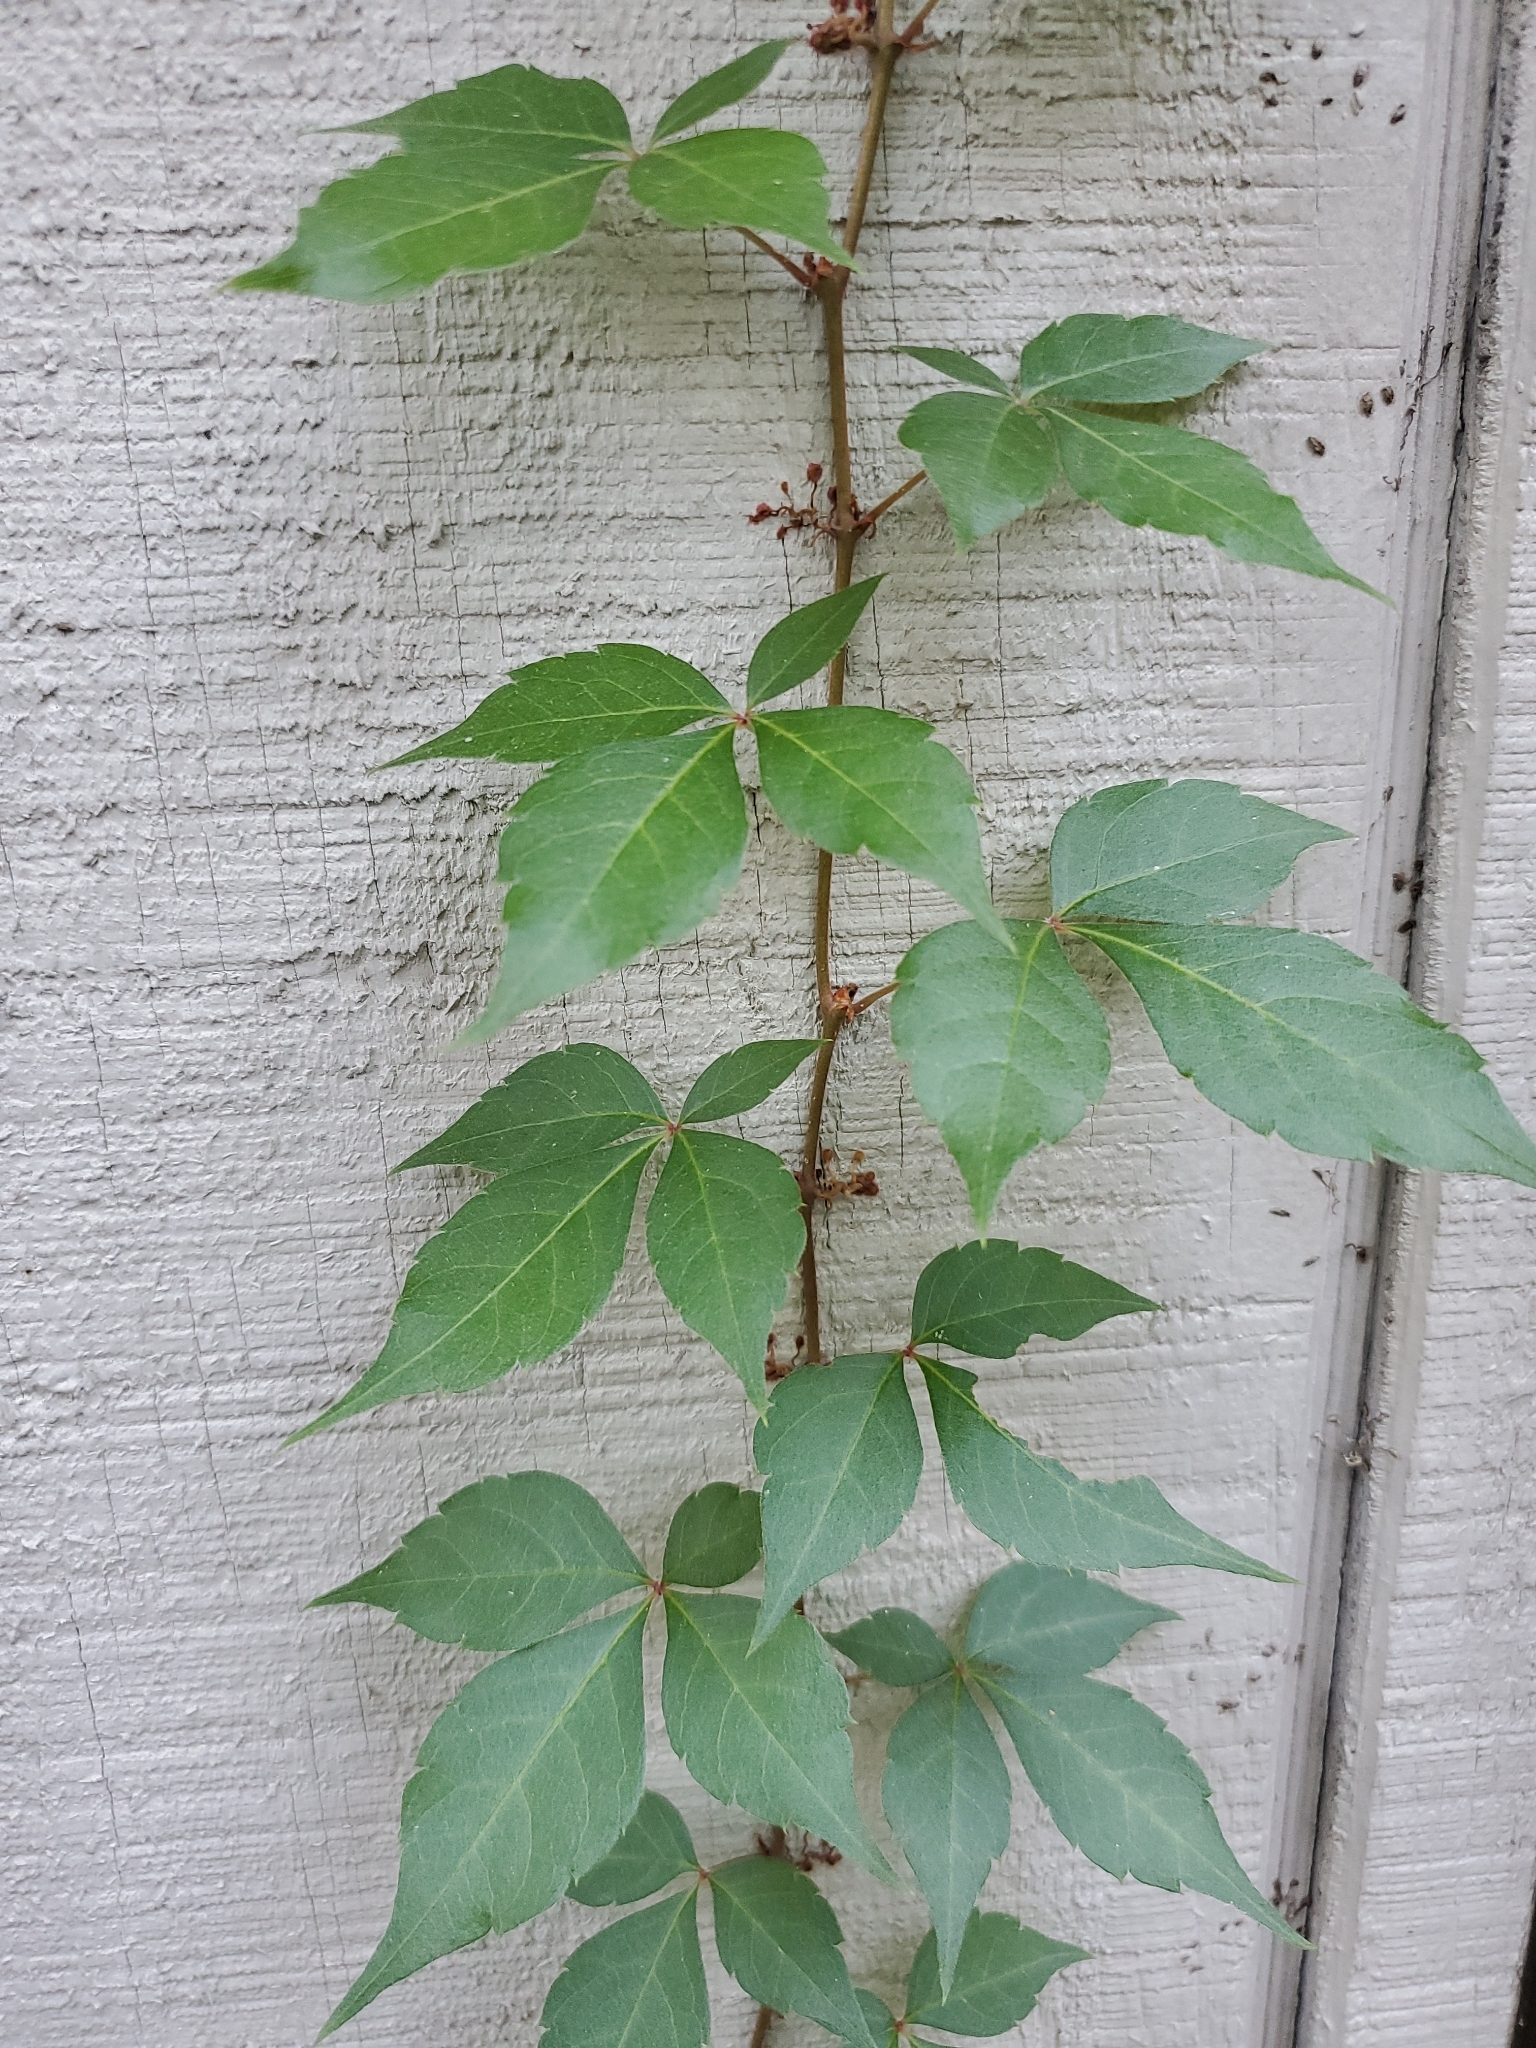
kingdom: Plantae
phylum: Tracheophyta
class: Magnoliopsida
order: Vitales
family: Vitaceae
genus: Parthenocissus
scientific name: Parthenocissus quinquefolia
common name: Virginia-creeper
